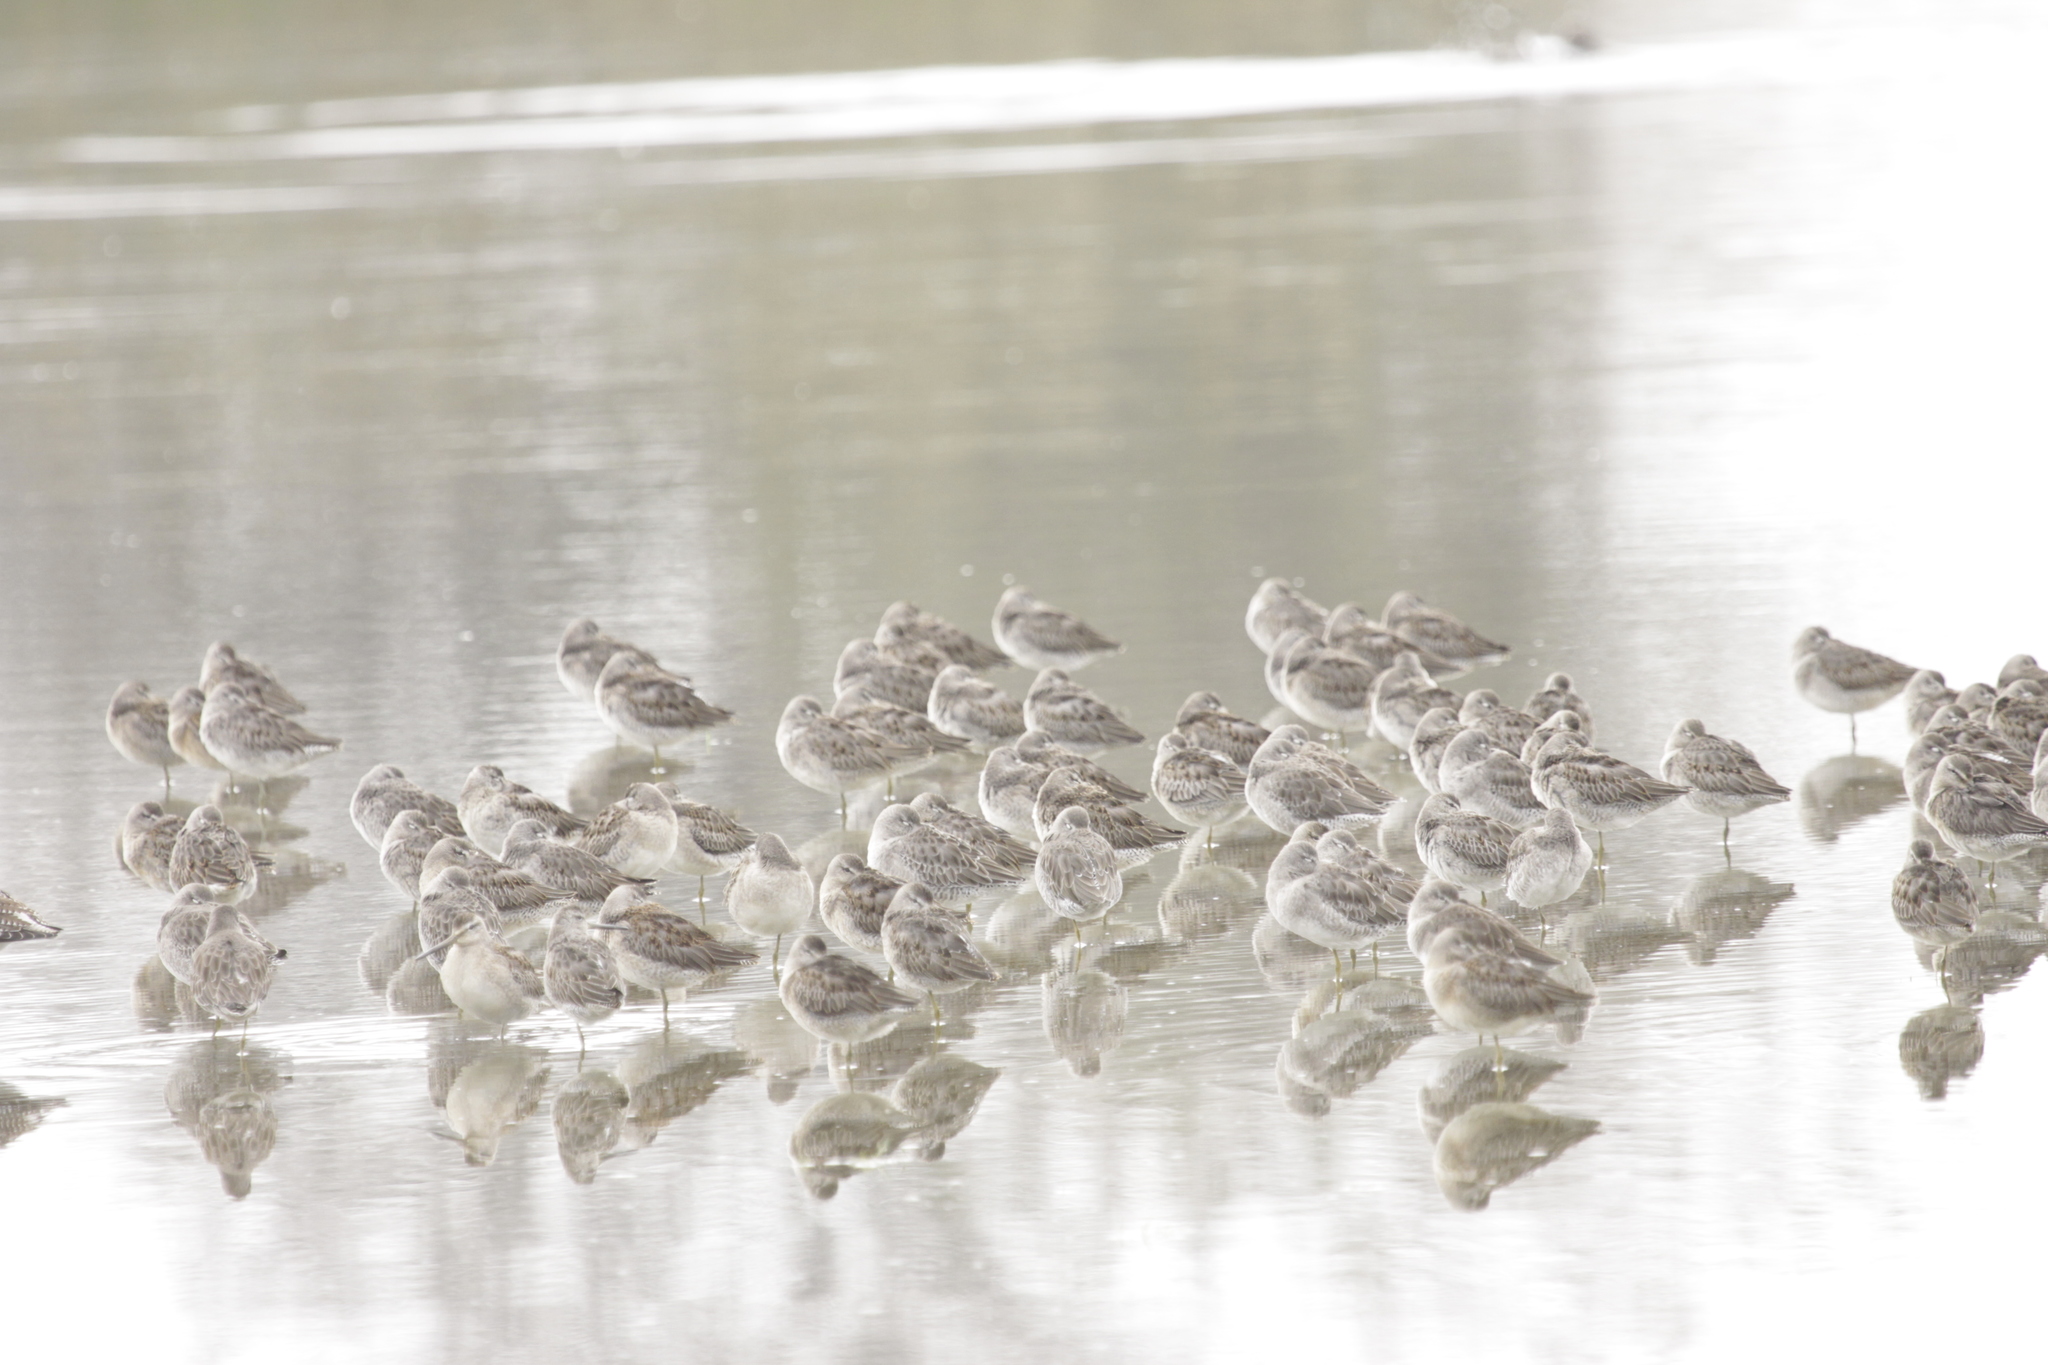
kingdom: Animalia
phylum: Chordata
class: Aves
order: Charadriiformes
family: Scolopacidae
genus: Limnodromus
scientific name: Limnodromus scolopaceus
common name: Long-billed dowitcher
